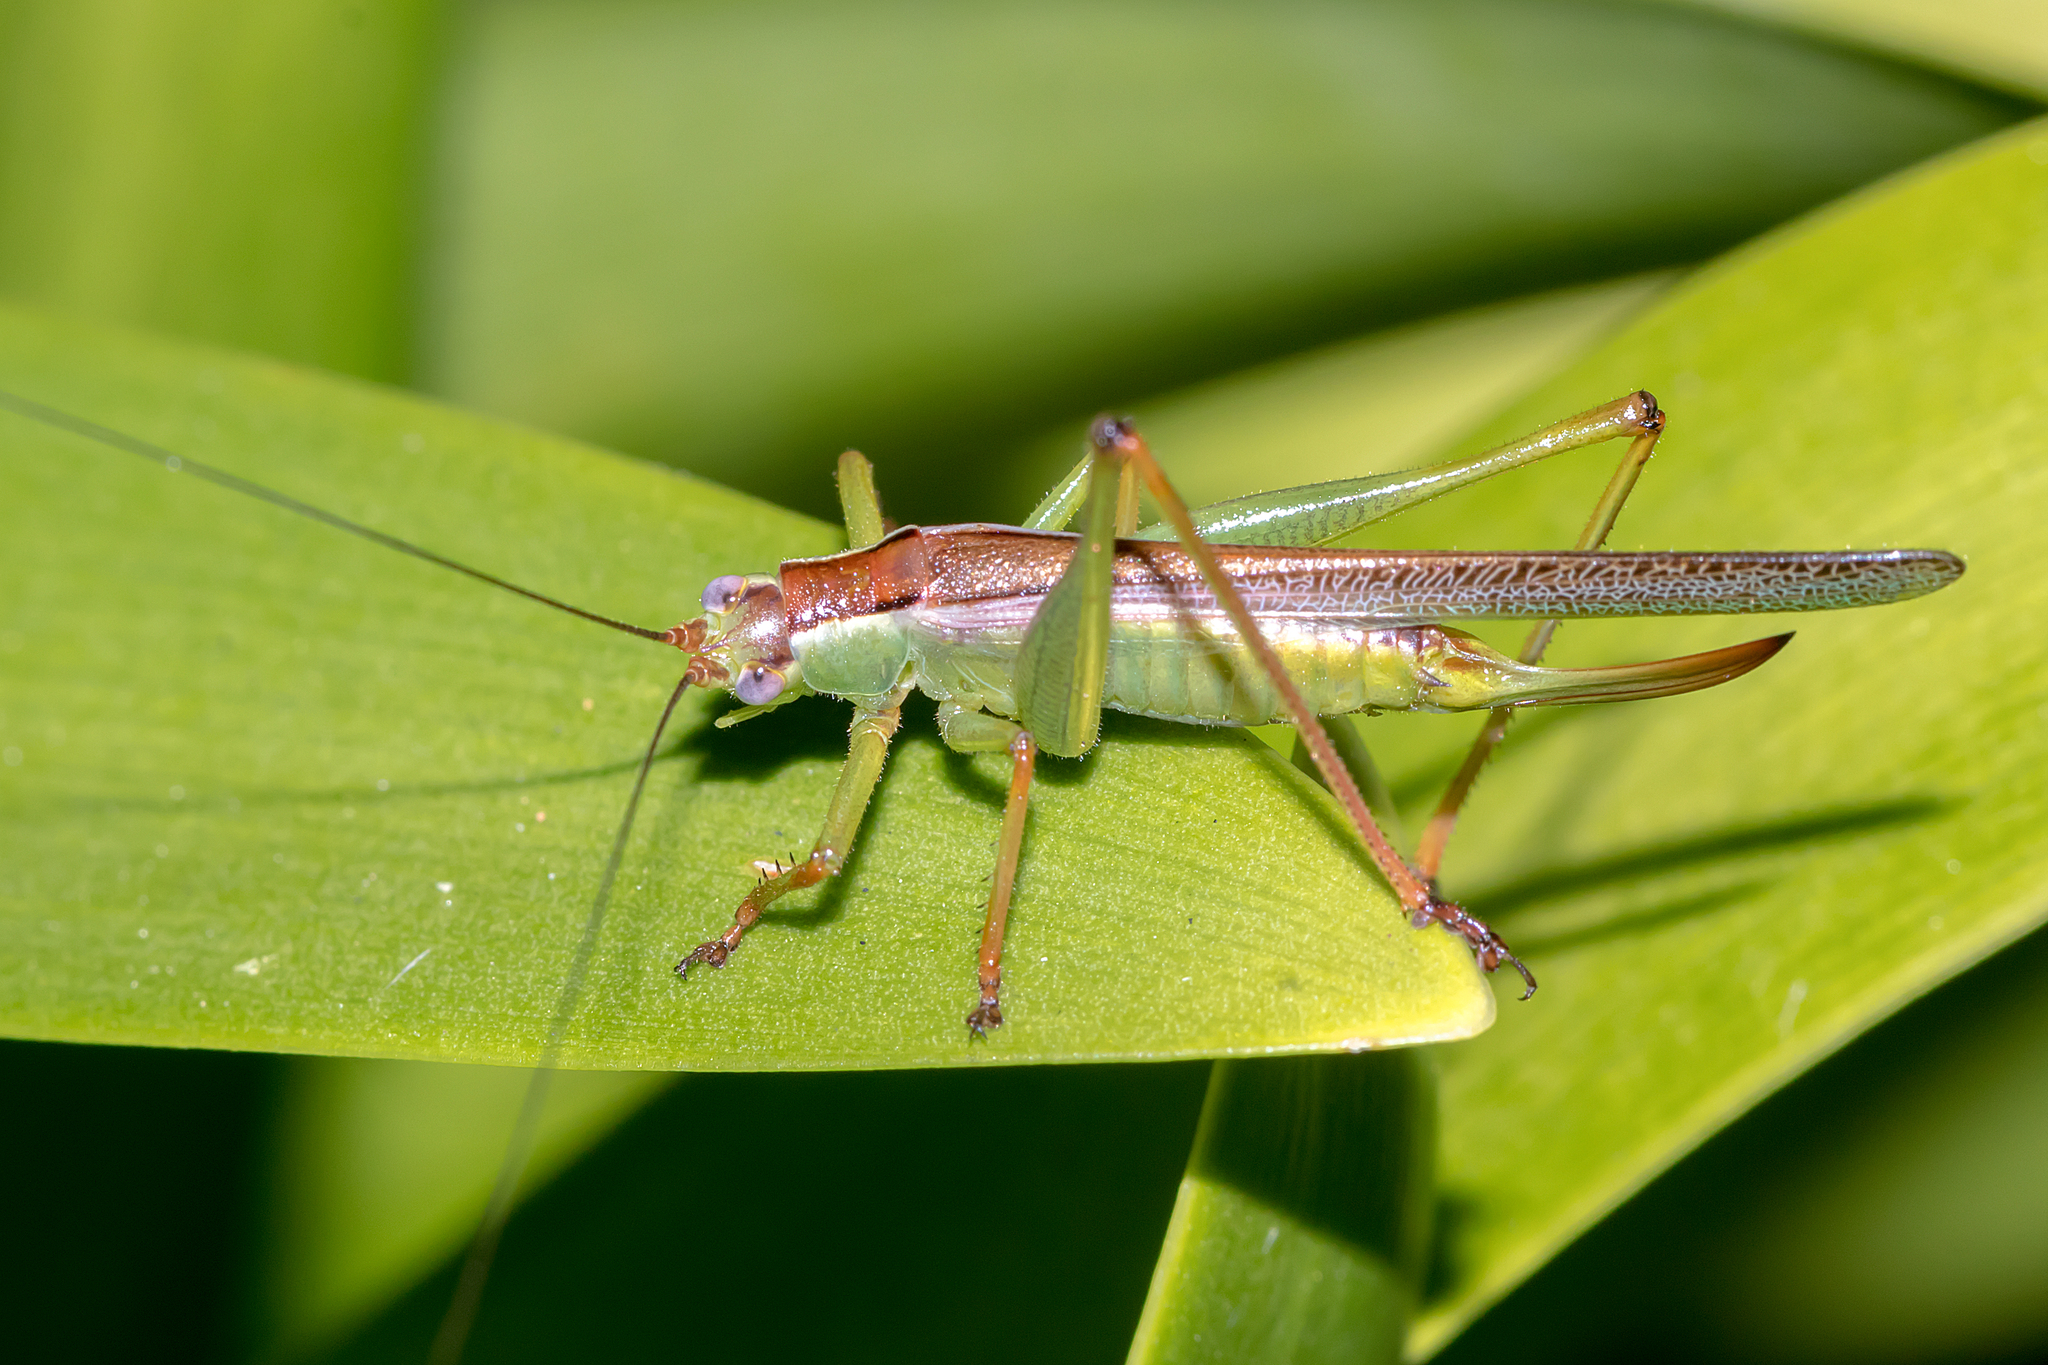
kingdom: Animalia
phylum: Arthropoda
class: Insecta
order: Orthoptera
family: Tettigoniidae
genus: Conocephalomima
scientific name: Conocephalomima barameda
